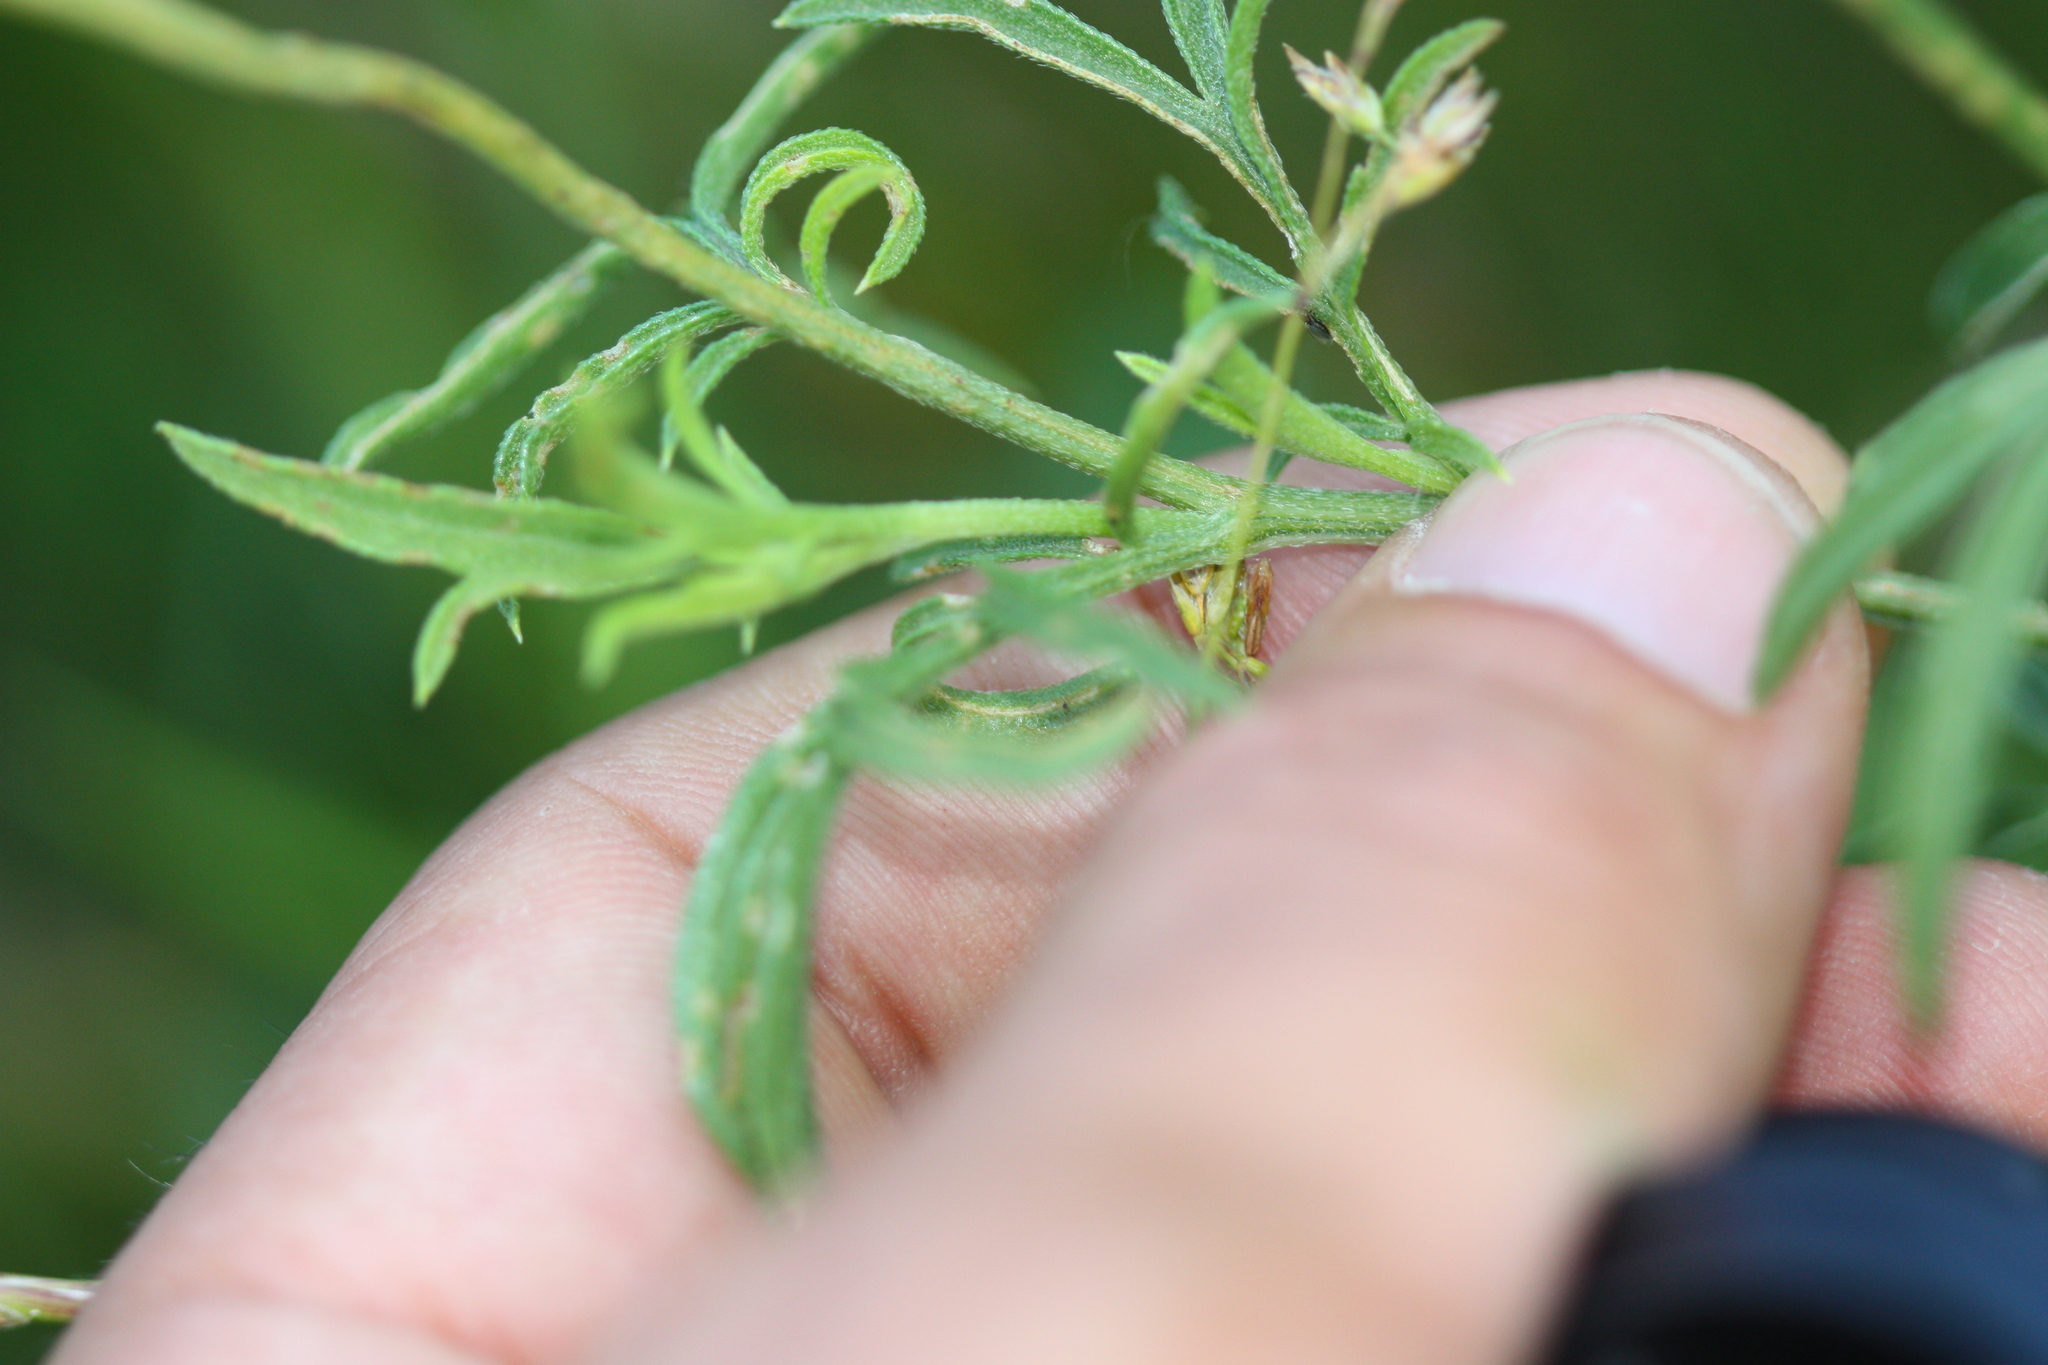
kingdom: Plantae
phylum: Tracheophyta
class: Magnoliopsida
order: Asterales
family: Asteraceae
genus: Ratibida
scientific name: Ratibida columnifera
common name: Prairie coneflower
